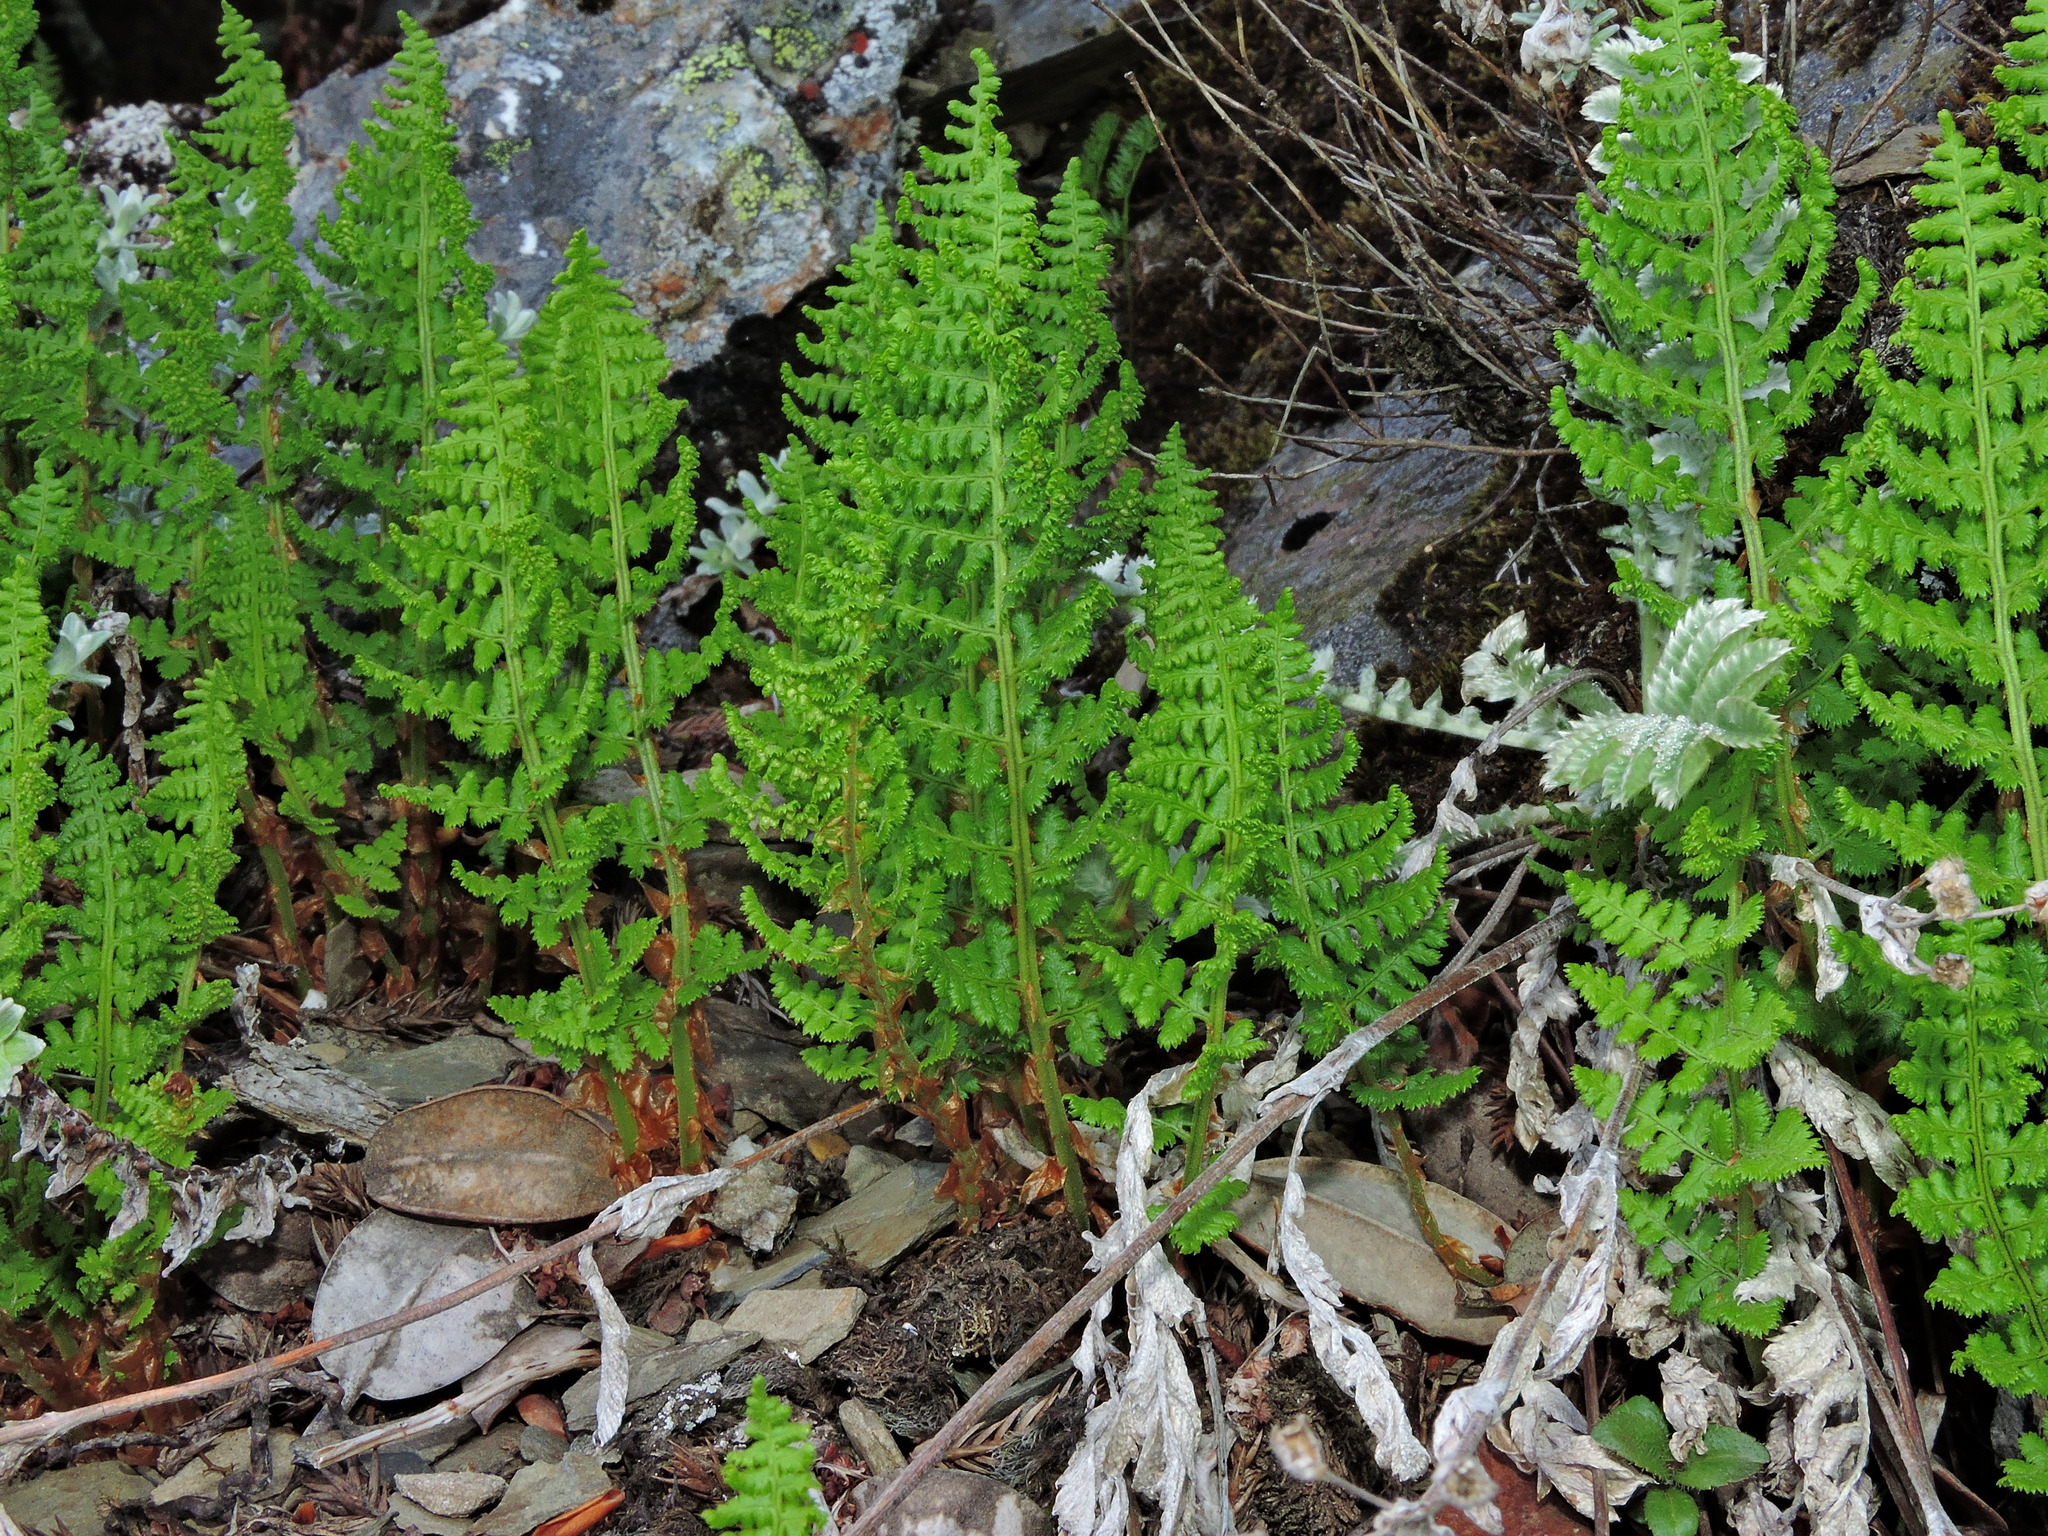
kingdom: Plantae
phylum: Tracheophyta
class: Polypodiopsida
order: Polypodiales
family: Dryopteridaceae
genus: Dryopteris
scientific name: Dryopteris alpestris
